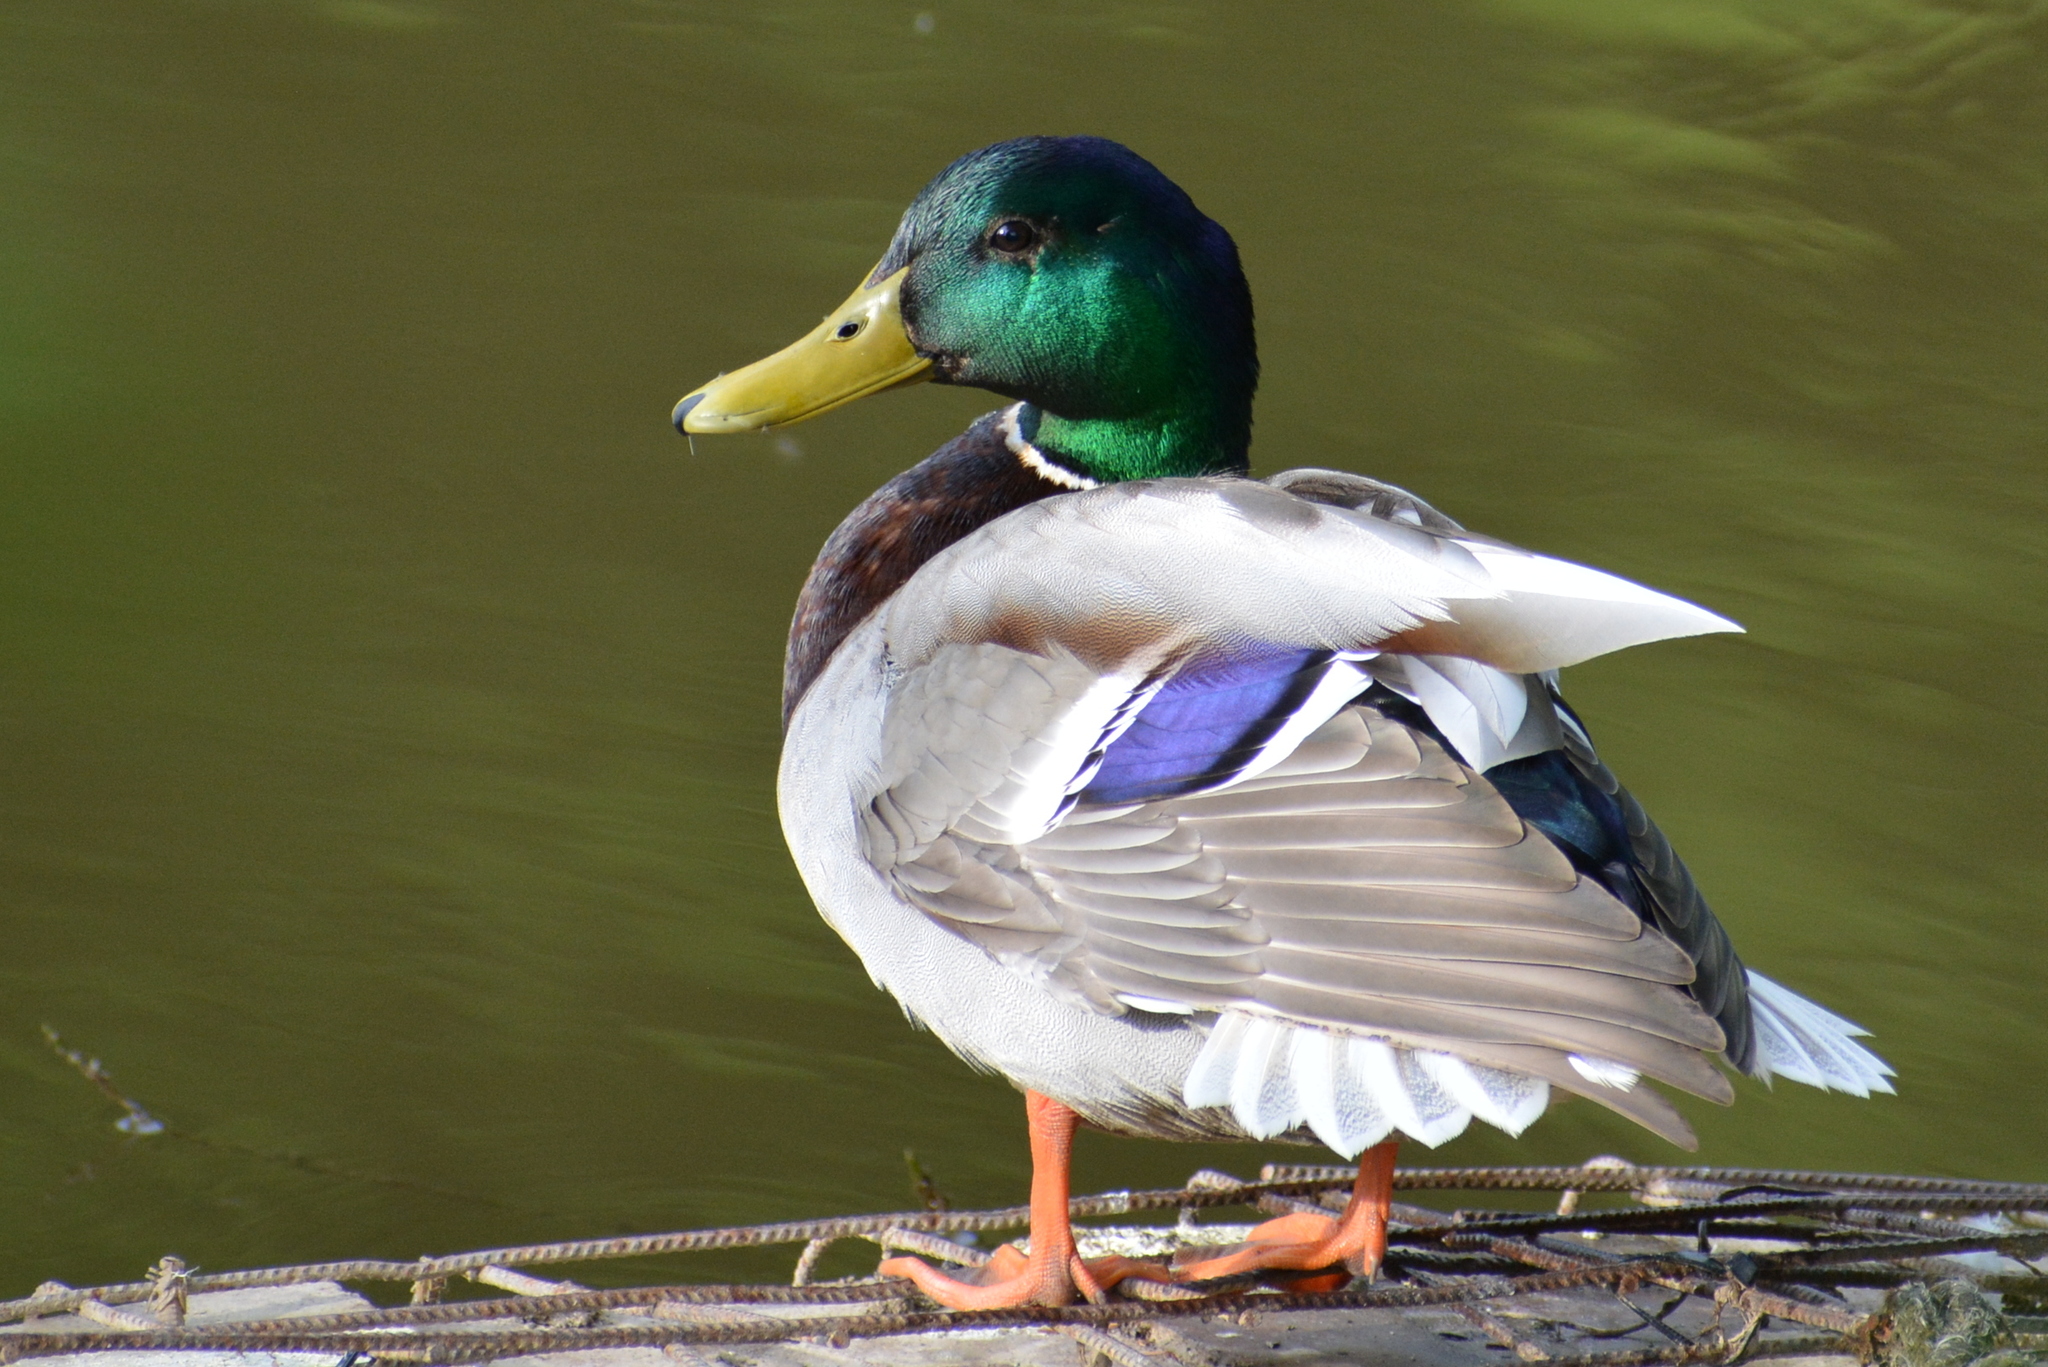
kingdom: Animalia
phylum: Chordata
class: Aves
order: Anseriformes
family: Anatidae
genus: Anas
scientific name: Anas platyrhynchos
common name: Mallard
